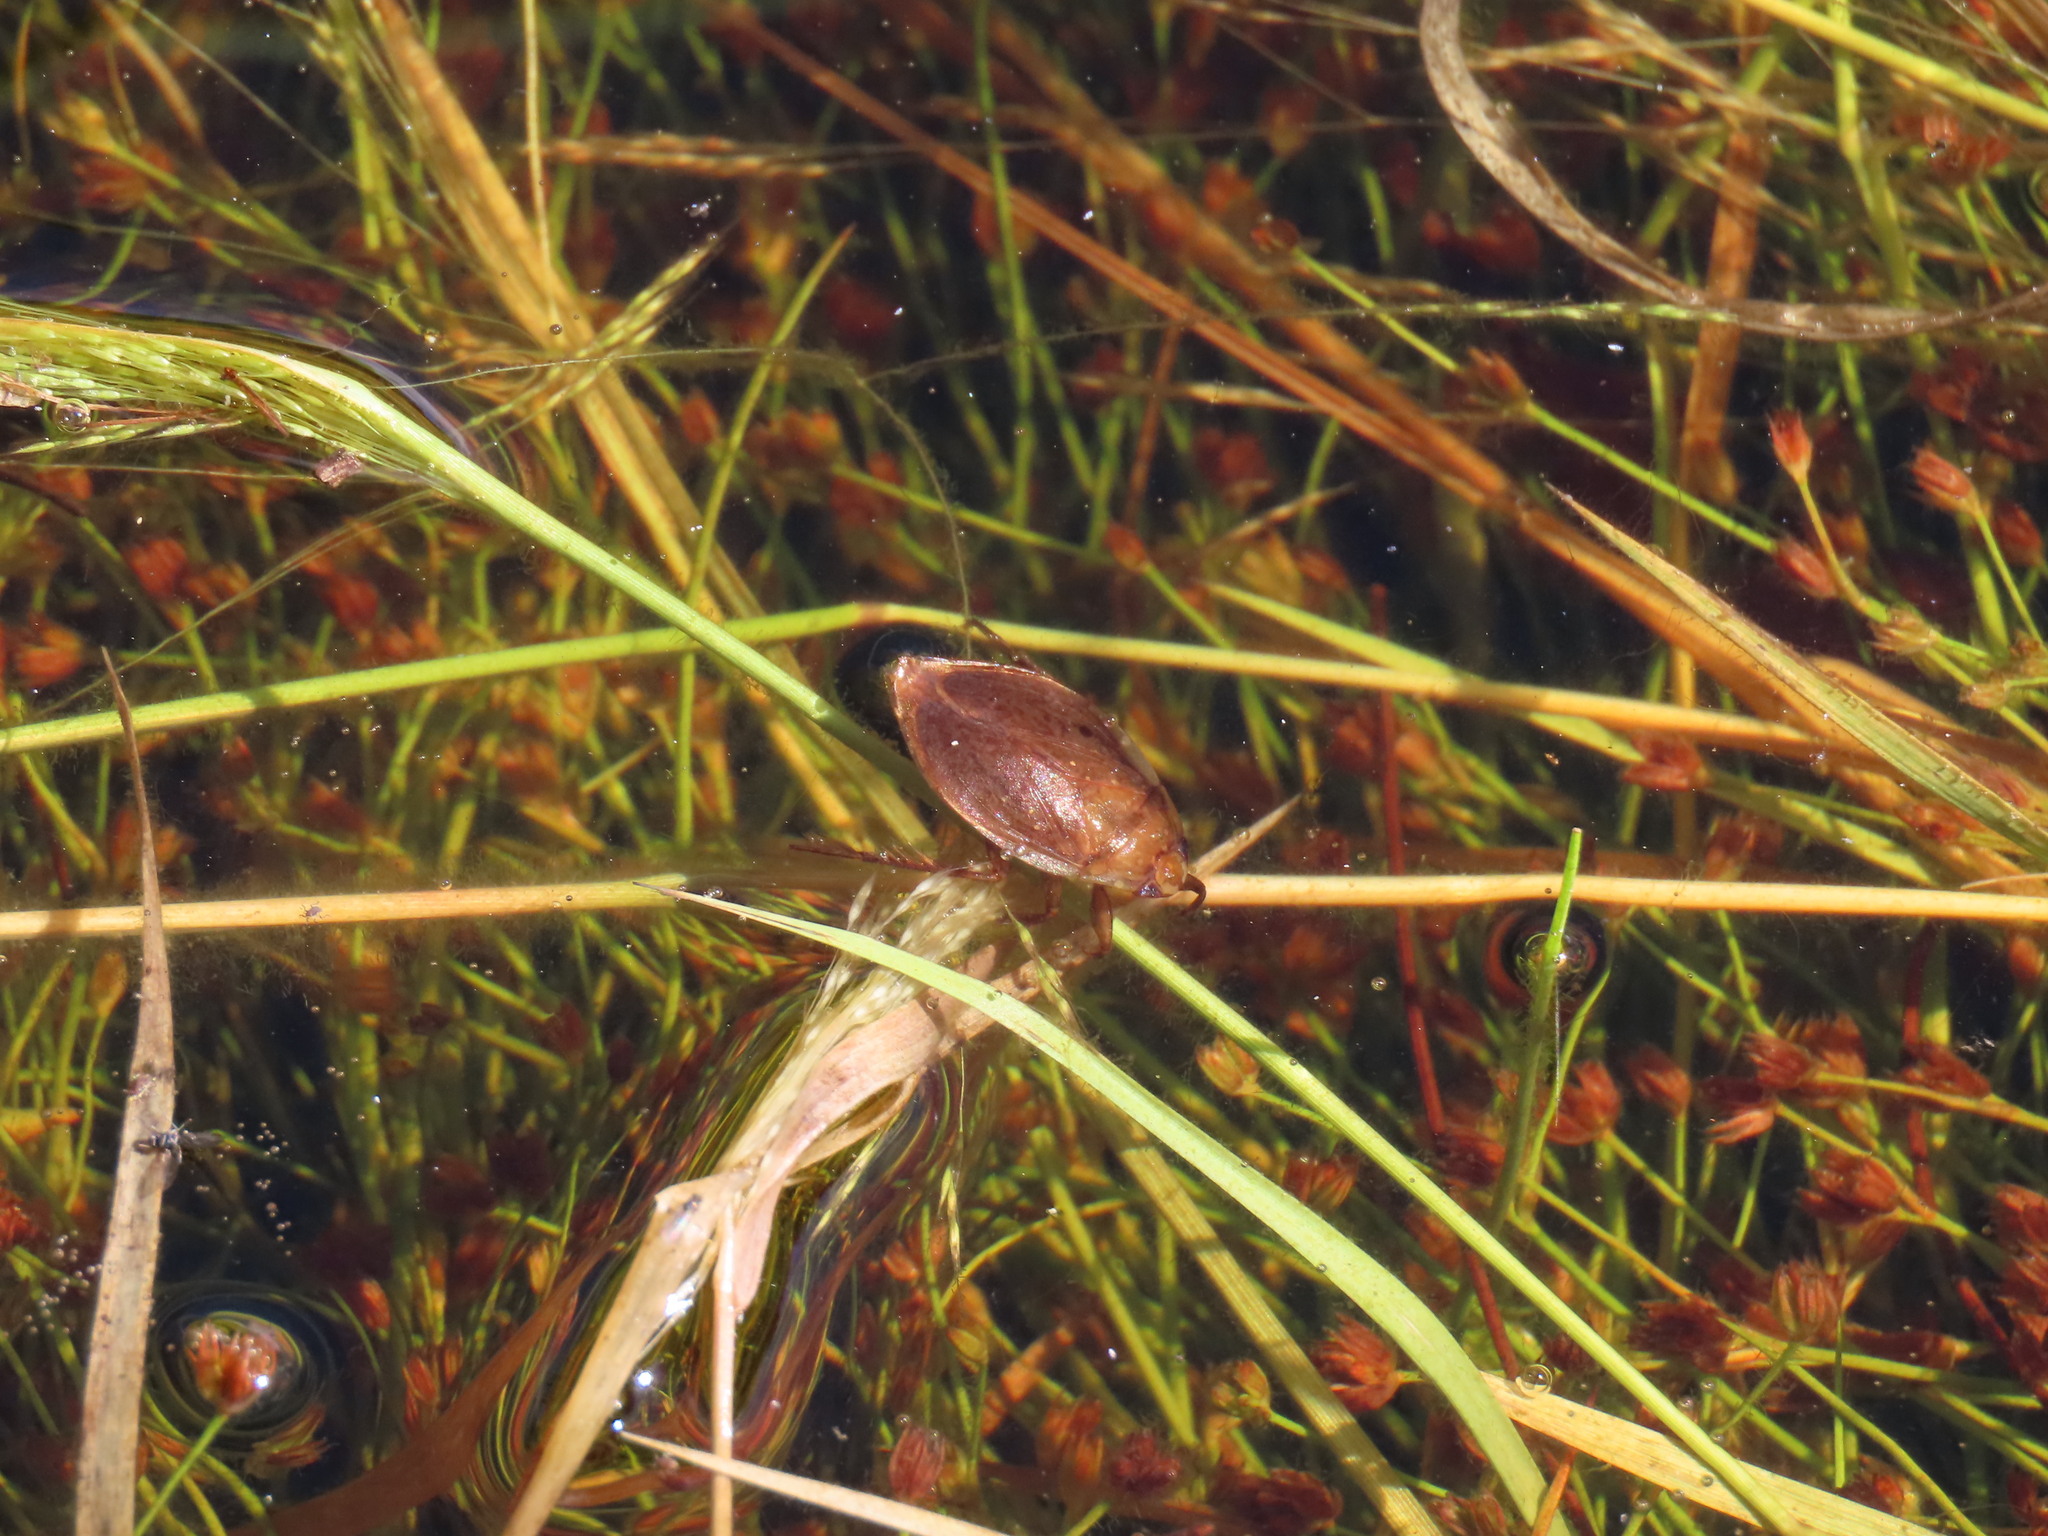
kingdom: Animalia
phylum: Arthropoda
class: Insecta
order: Hemiptera
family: Belostomatidae
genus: Diplonychus
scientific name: Diplonychus eques
